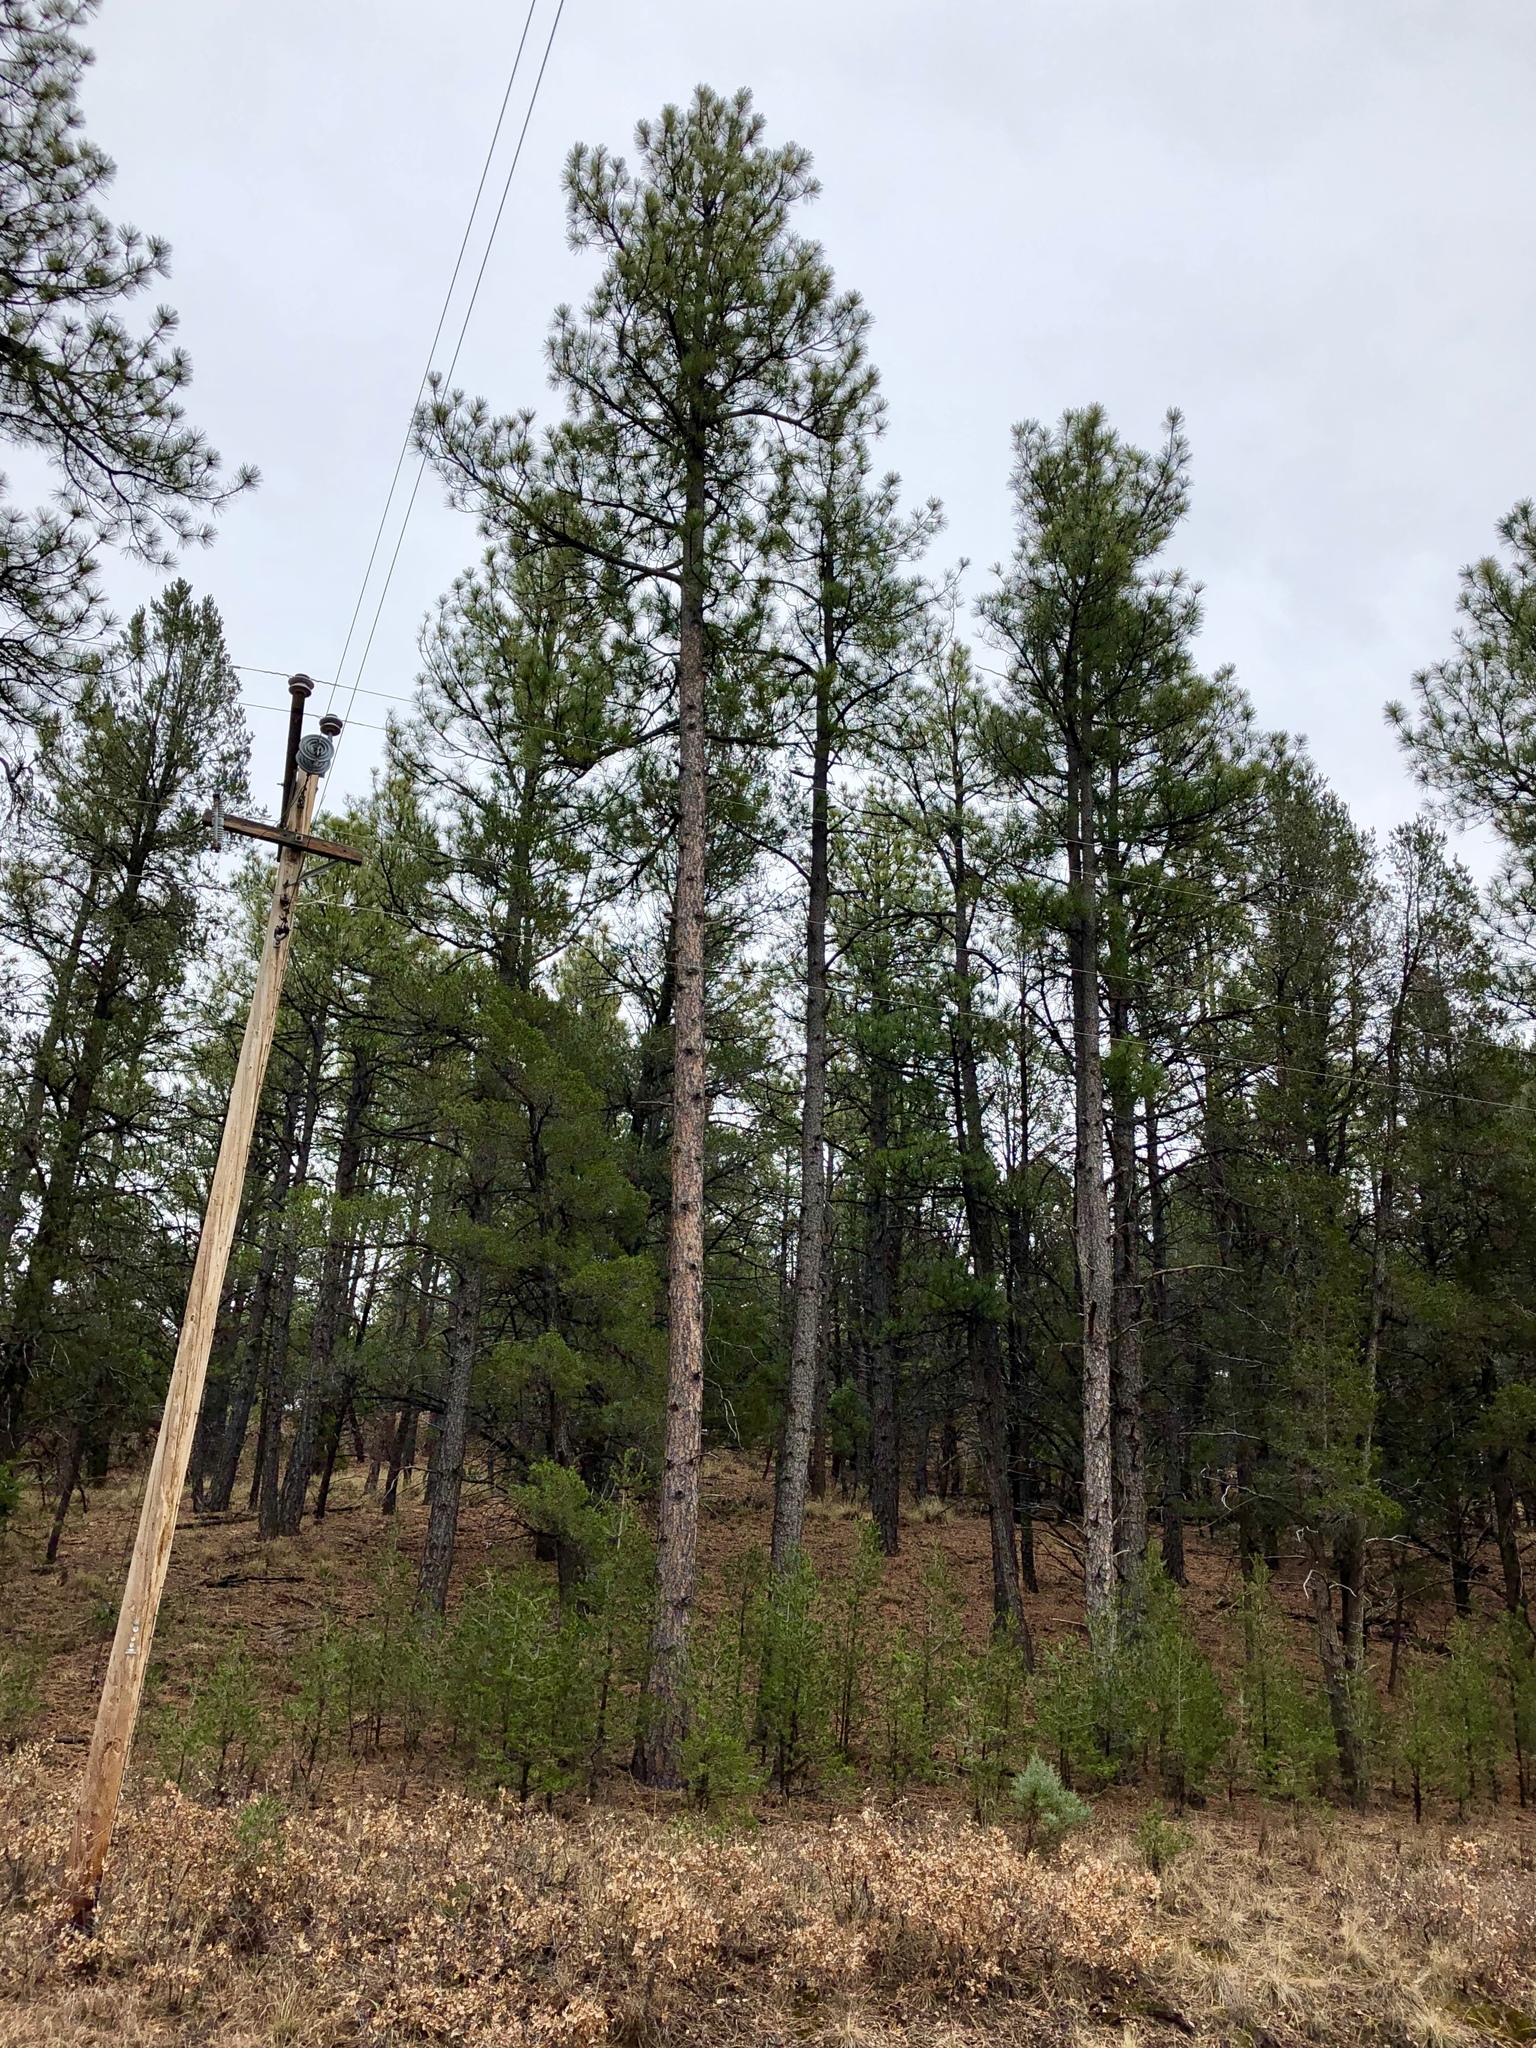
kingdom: Plantae
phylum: Tracheophyta
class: Pinopsida
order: Pinales
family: Pinaceae
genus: Pinus
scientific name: Pinus ponderosa
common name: Western yellow-pine
